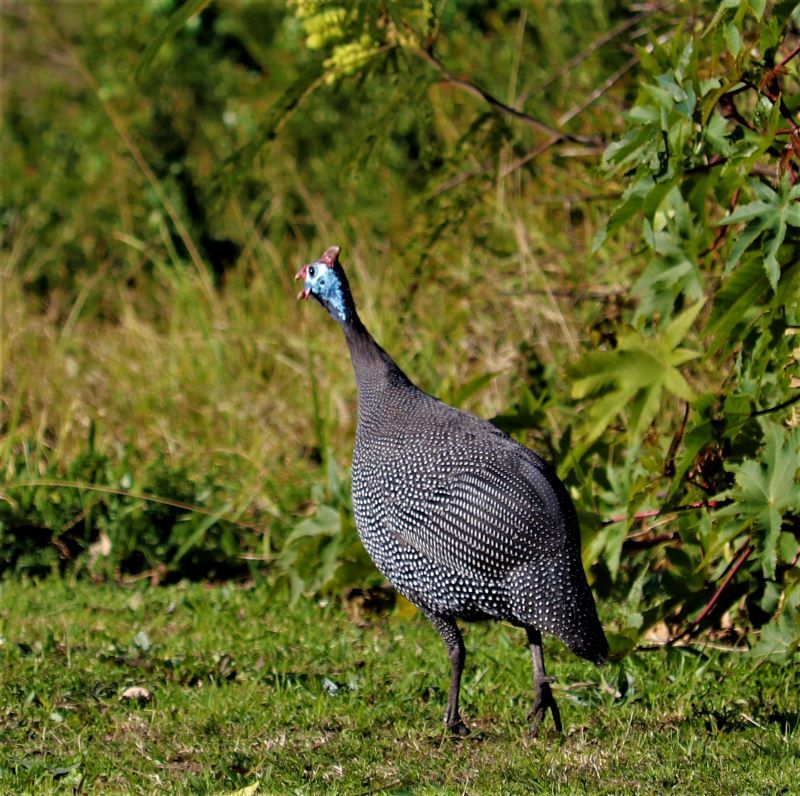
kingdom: Animalia
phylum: Chordata
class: Aves
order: Galliformes
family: Numididae
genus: Numida
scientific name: Numida meleagris
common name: Helmeted guineafowl
